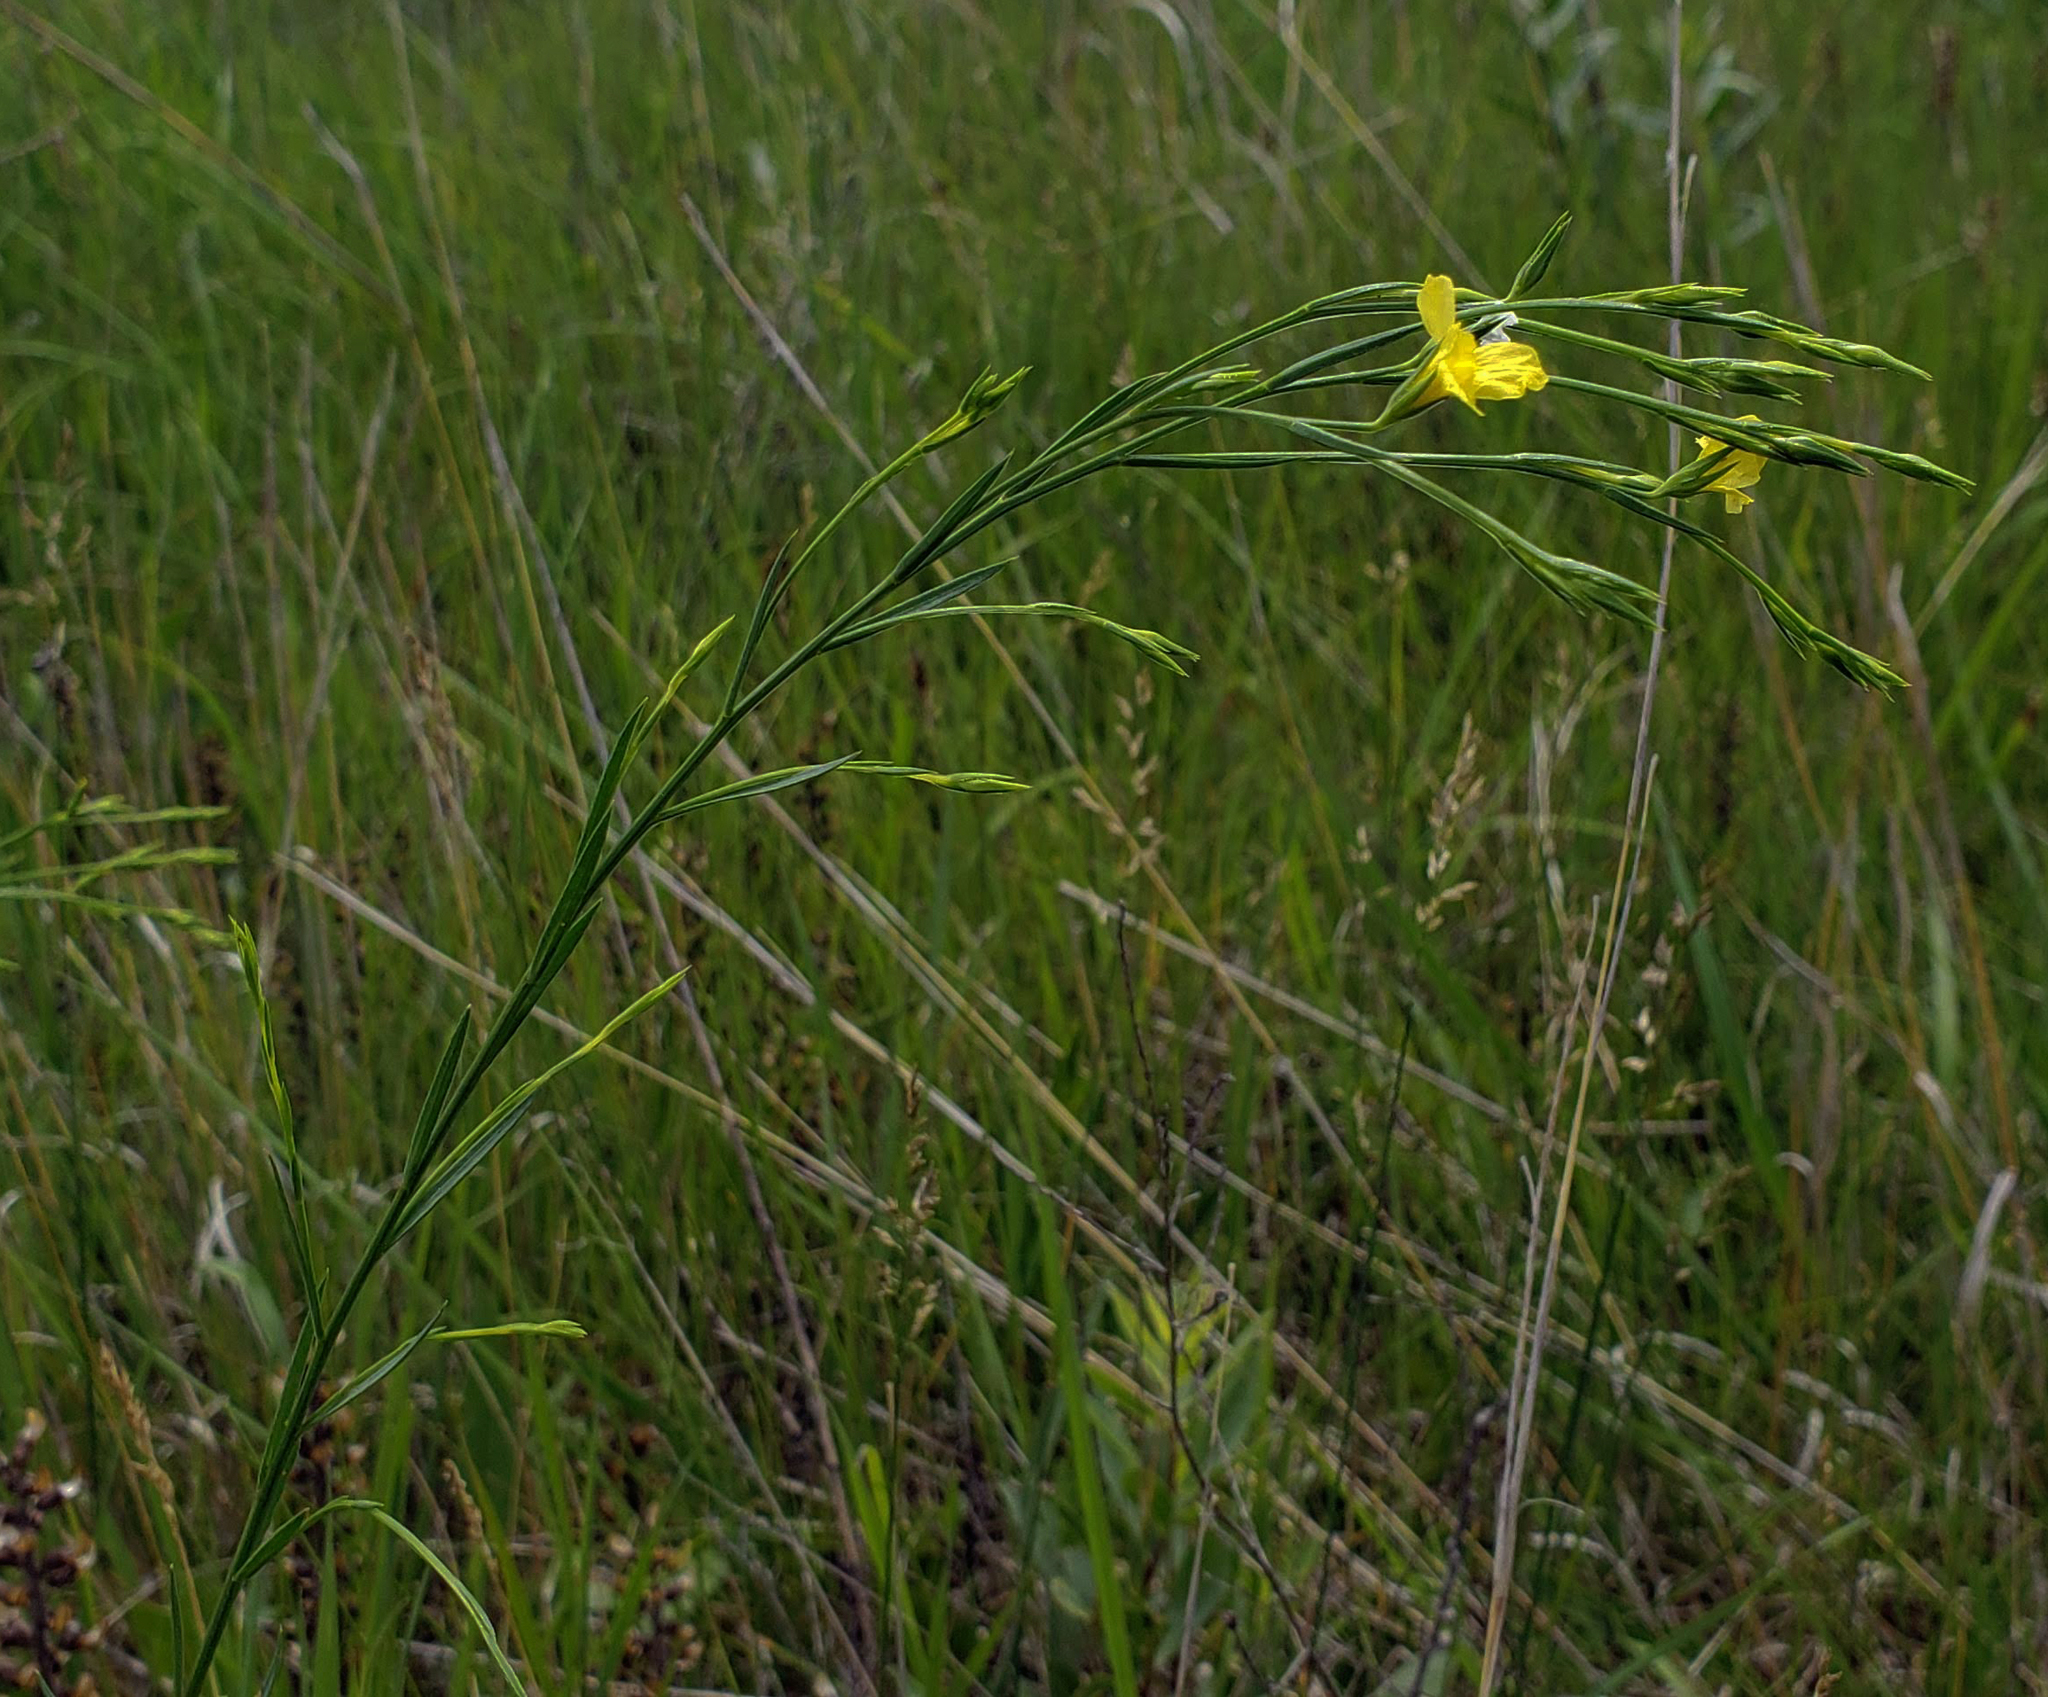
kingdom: Plantae
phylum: Tracheophyta
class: Magnoliopsida
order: Malpighiales
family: Linaceae
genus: Linum
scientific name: Linum sulcatum
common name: Grooved flax
